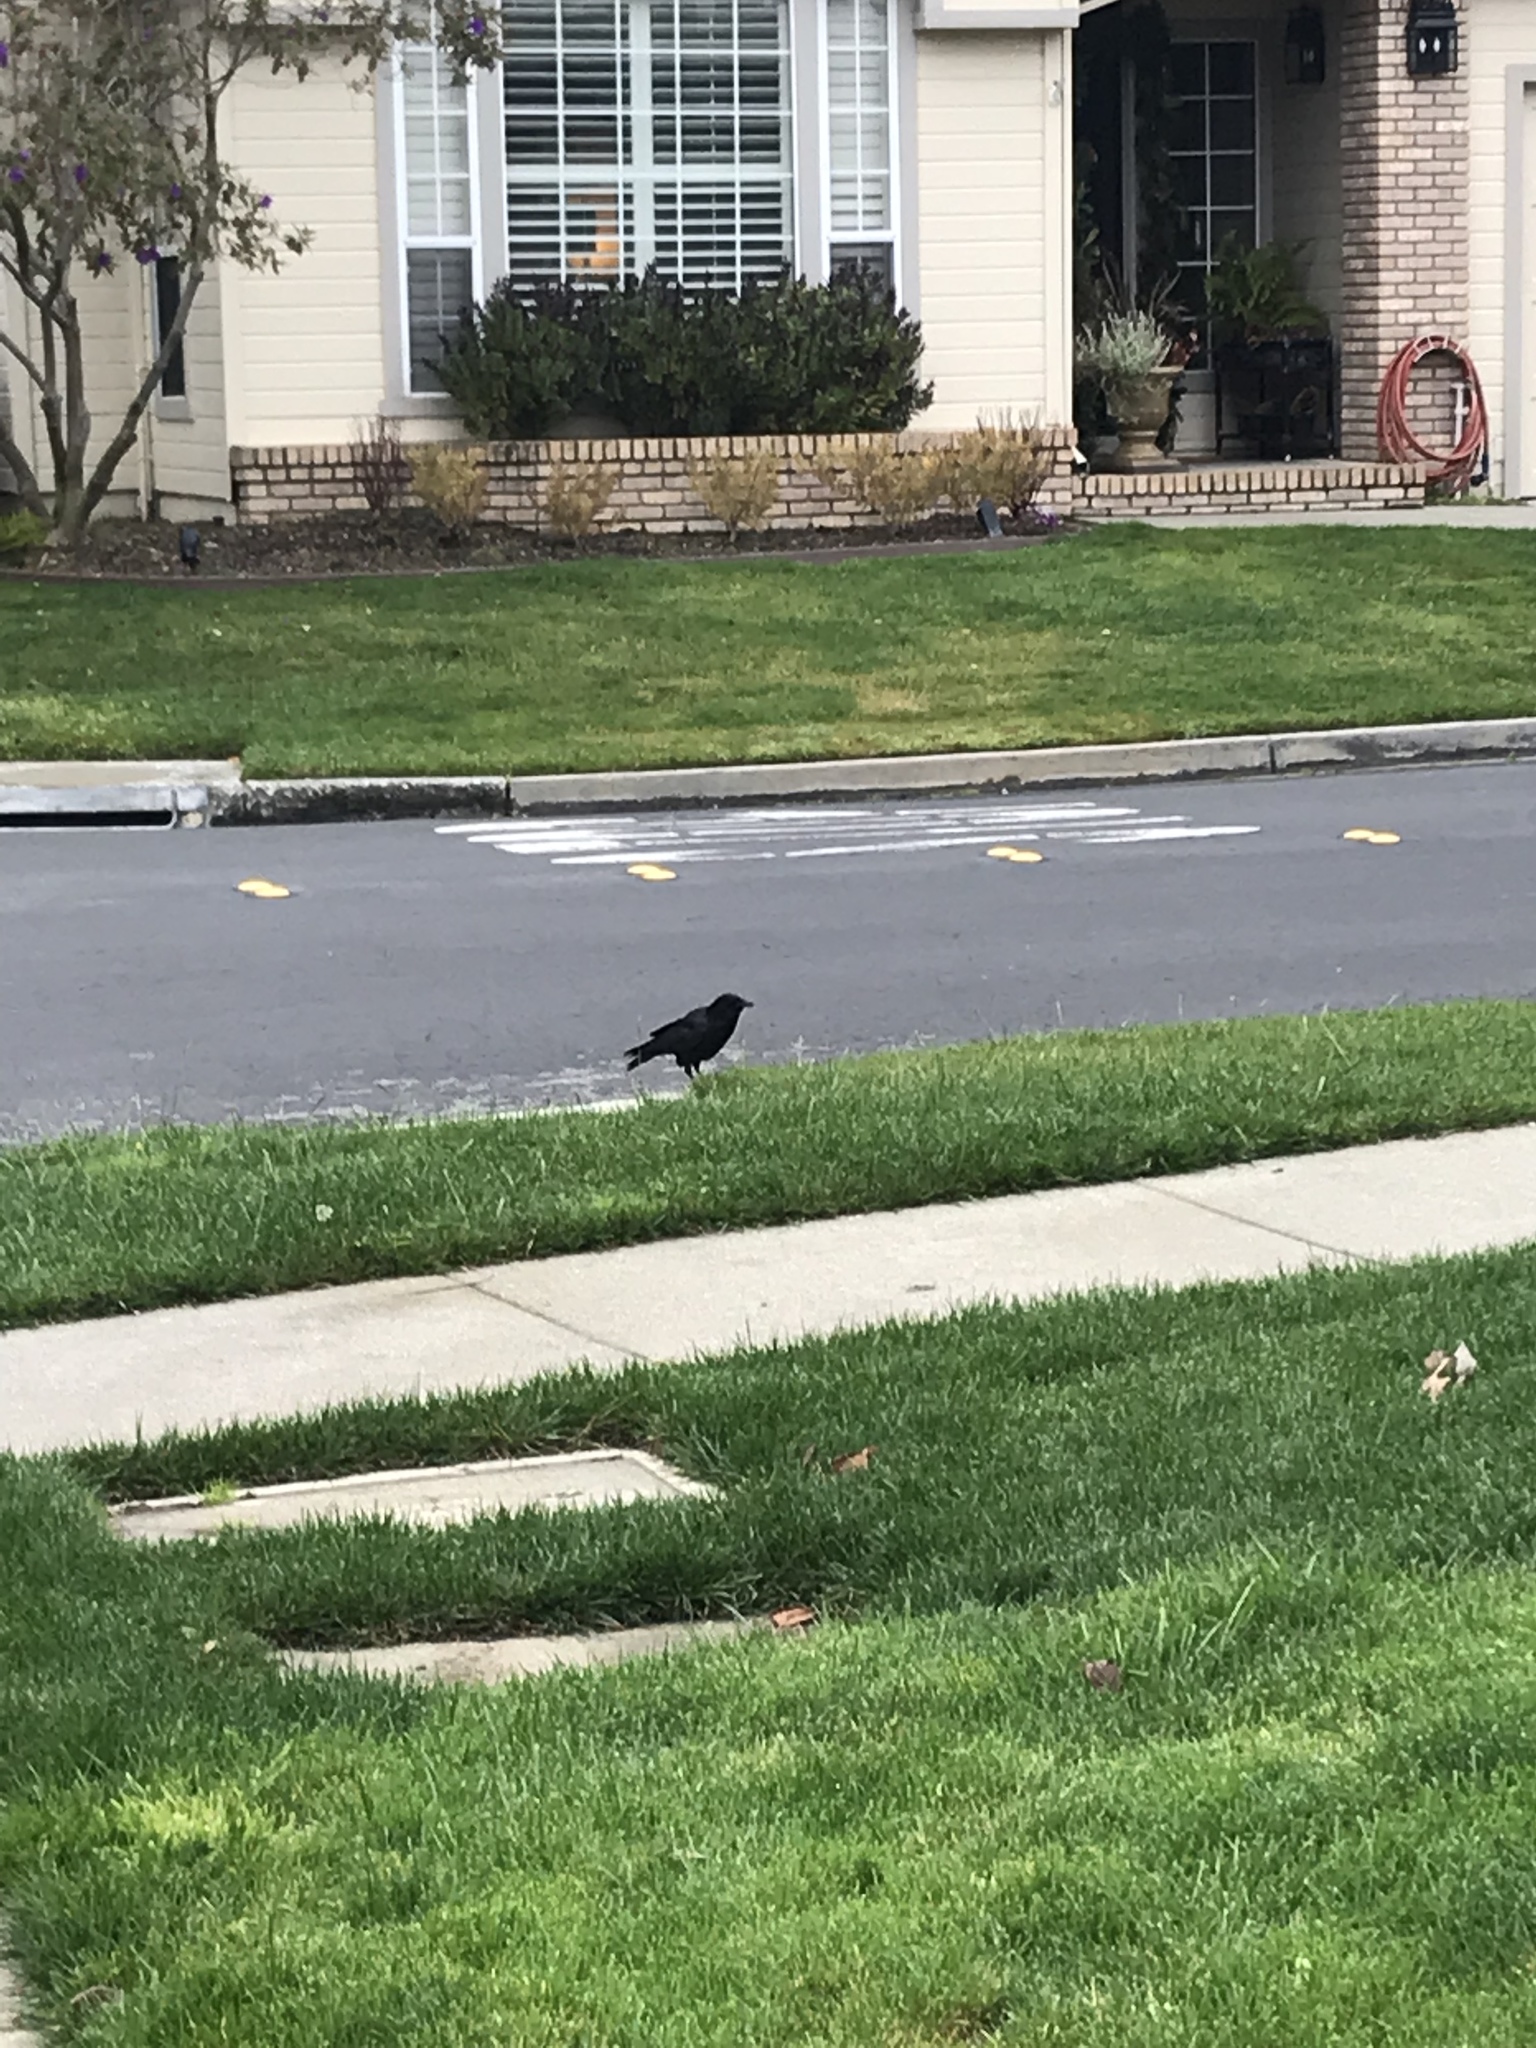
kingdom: Animalia
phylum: Chordata
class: Aves
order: Passeriformes
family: Corvidae
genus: Corvus
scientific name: Corvus brachyrhynchos
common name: American crow
